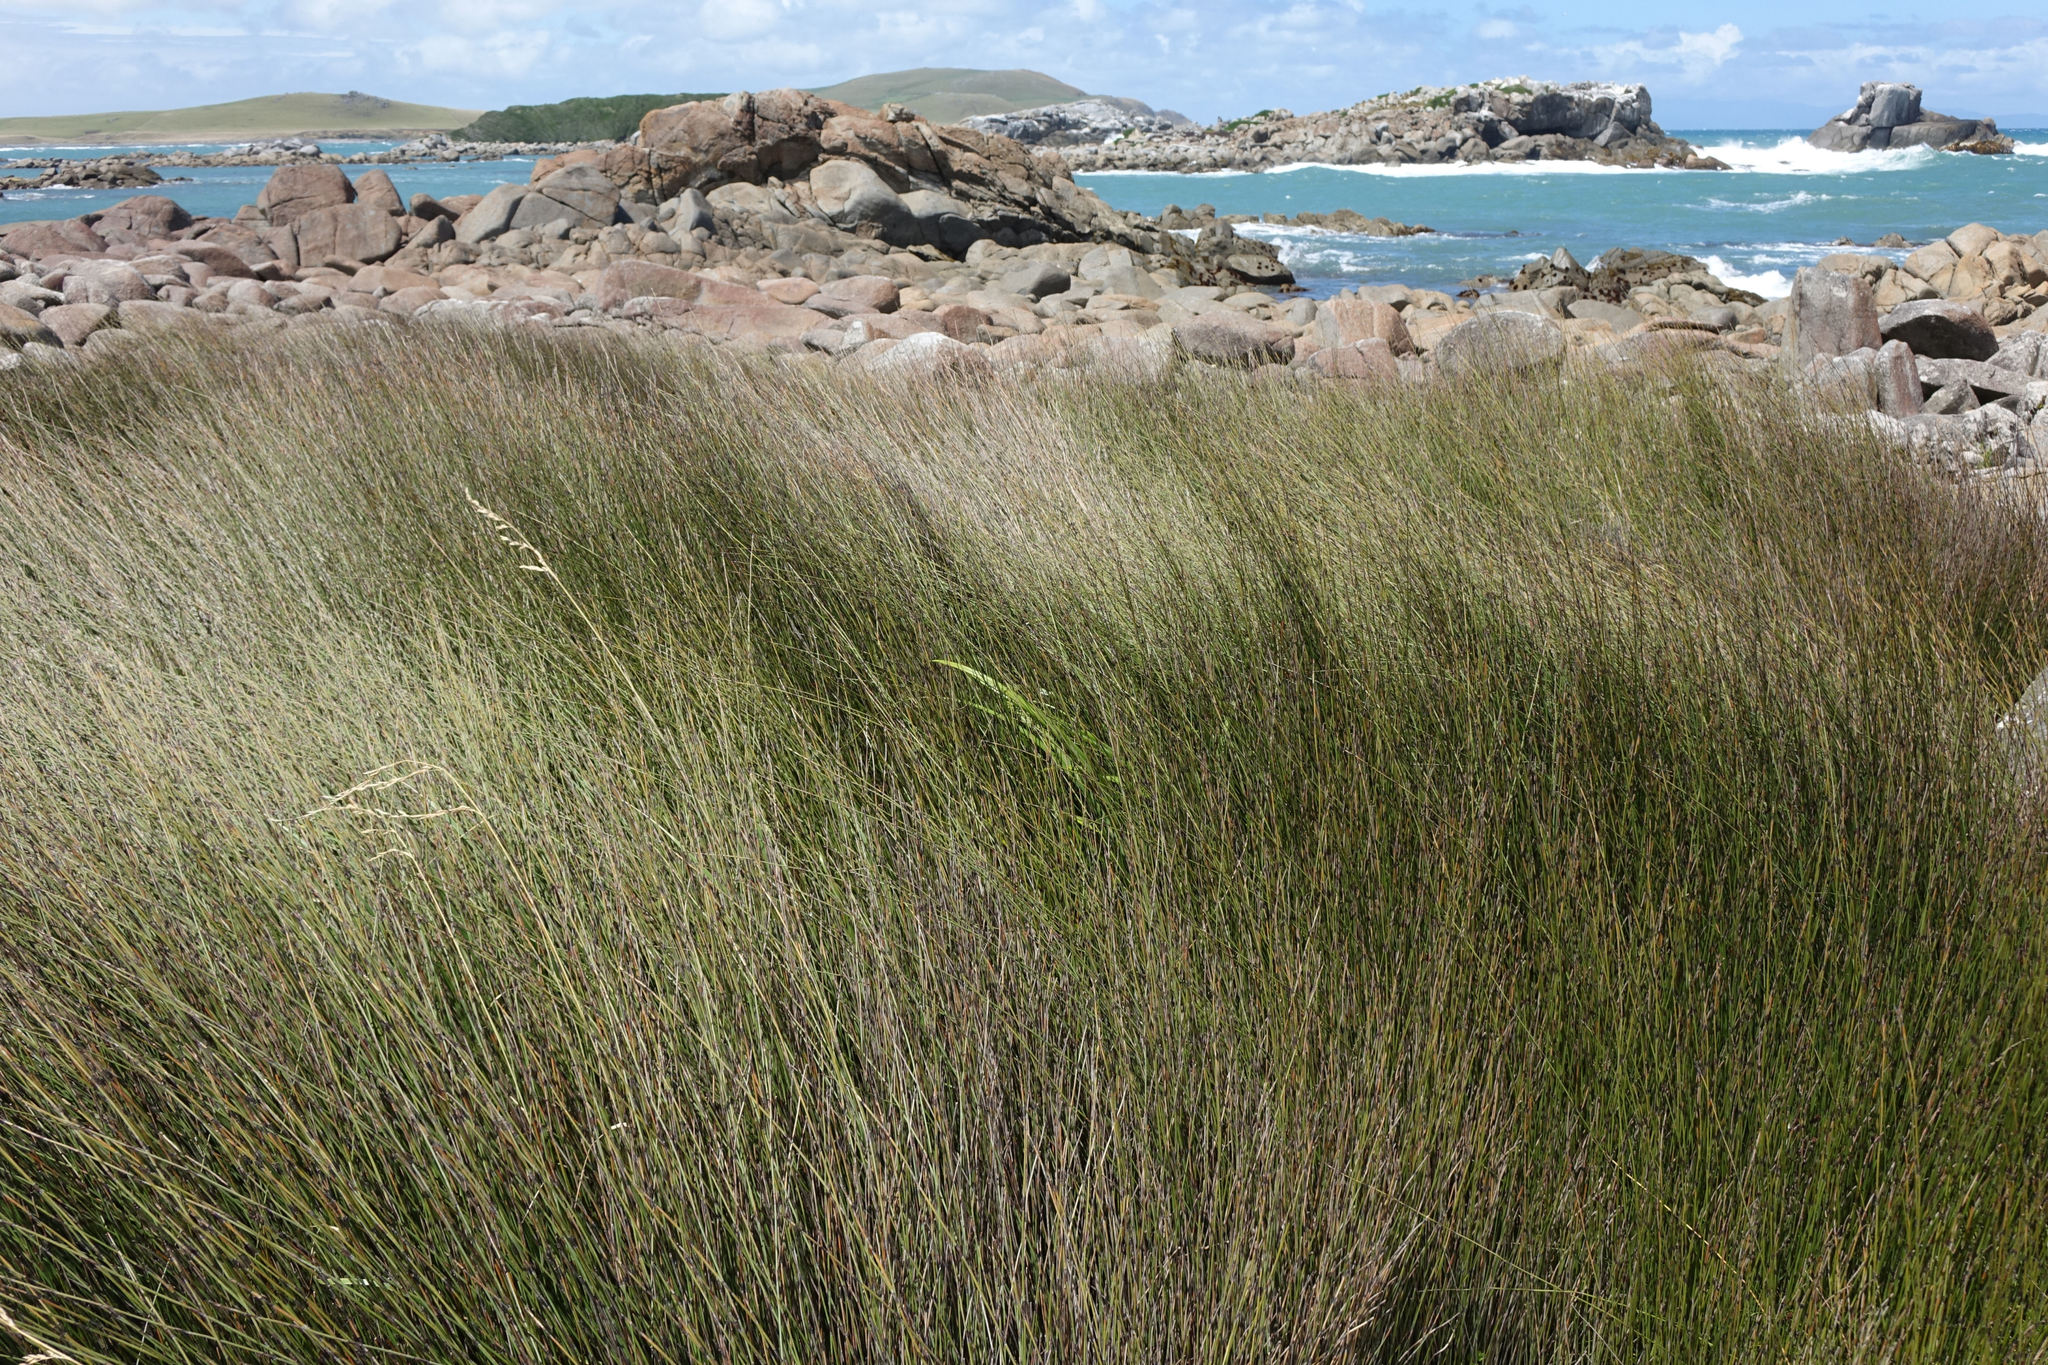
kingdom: Plantae
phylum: Tracheophyta
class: Liliopsida
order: Poales
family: Restionaceae
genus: Apodasmia
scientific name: Apodasmia similis
